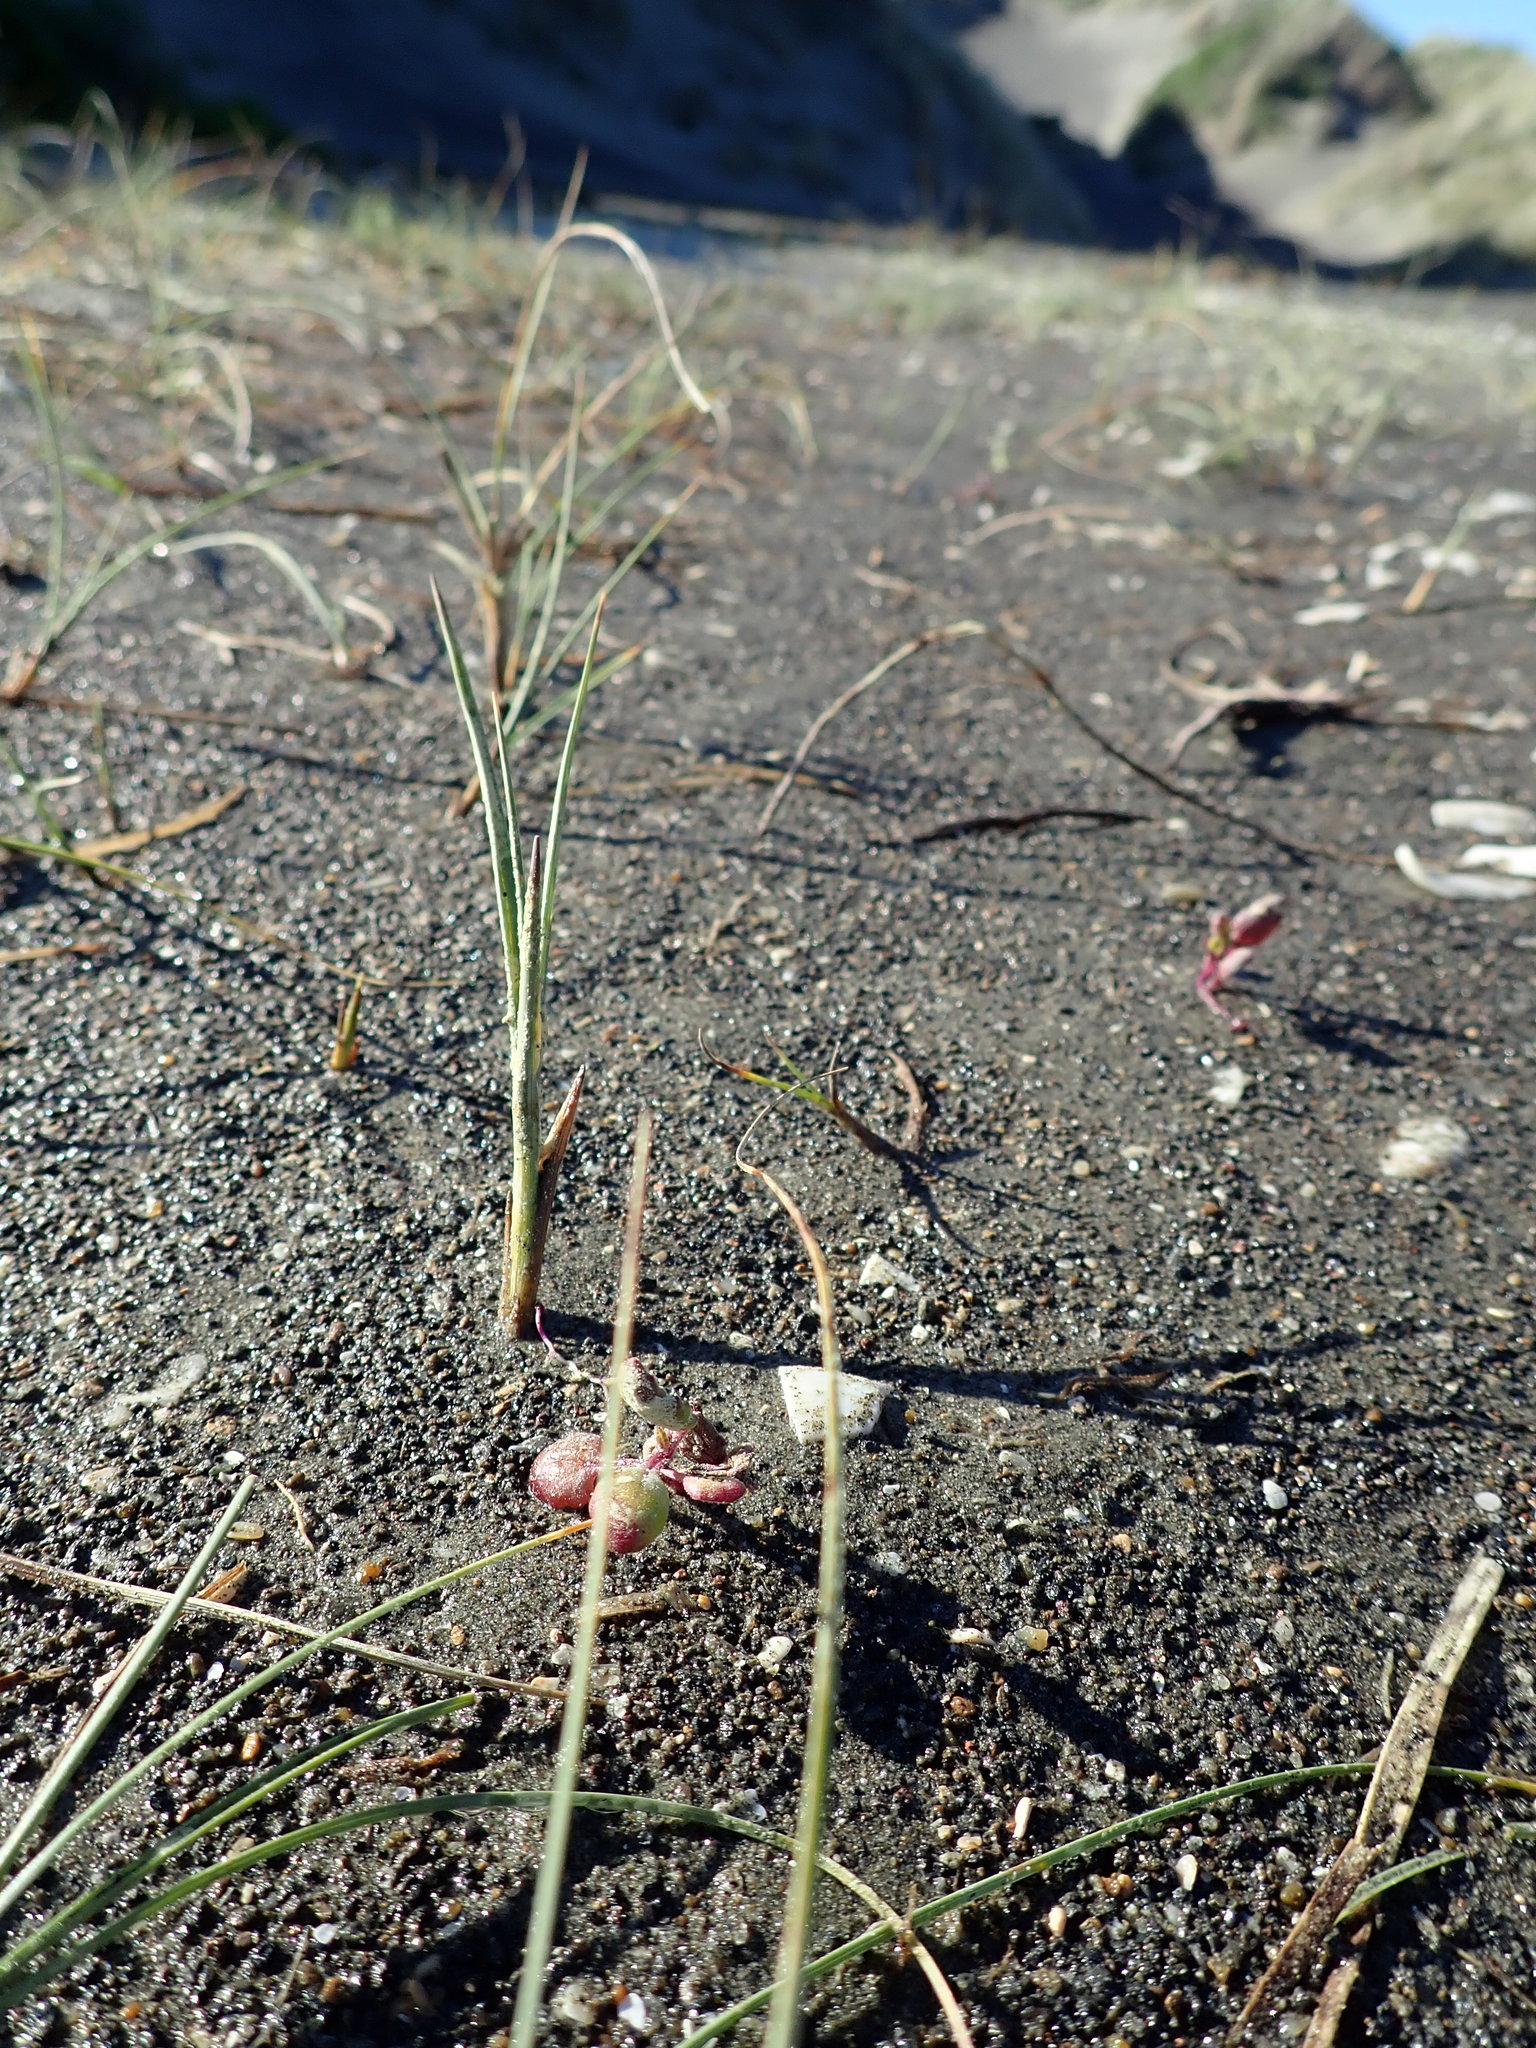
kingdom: Plantae
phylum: Tracheophyta
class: Liliopsida
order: Poales
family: Cyperaceae
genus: Carex
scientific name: Carex pumila
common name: Dwarf sedge
